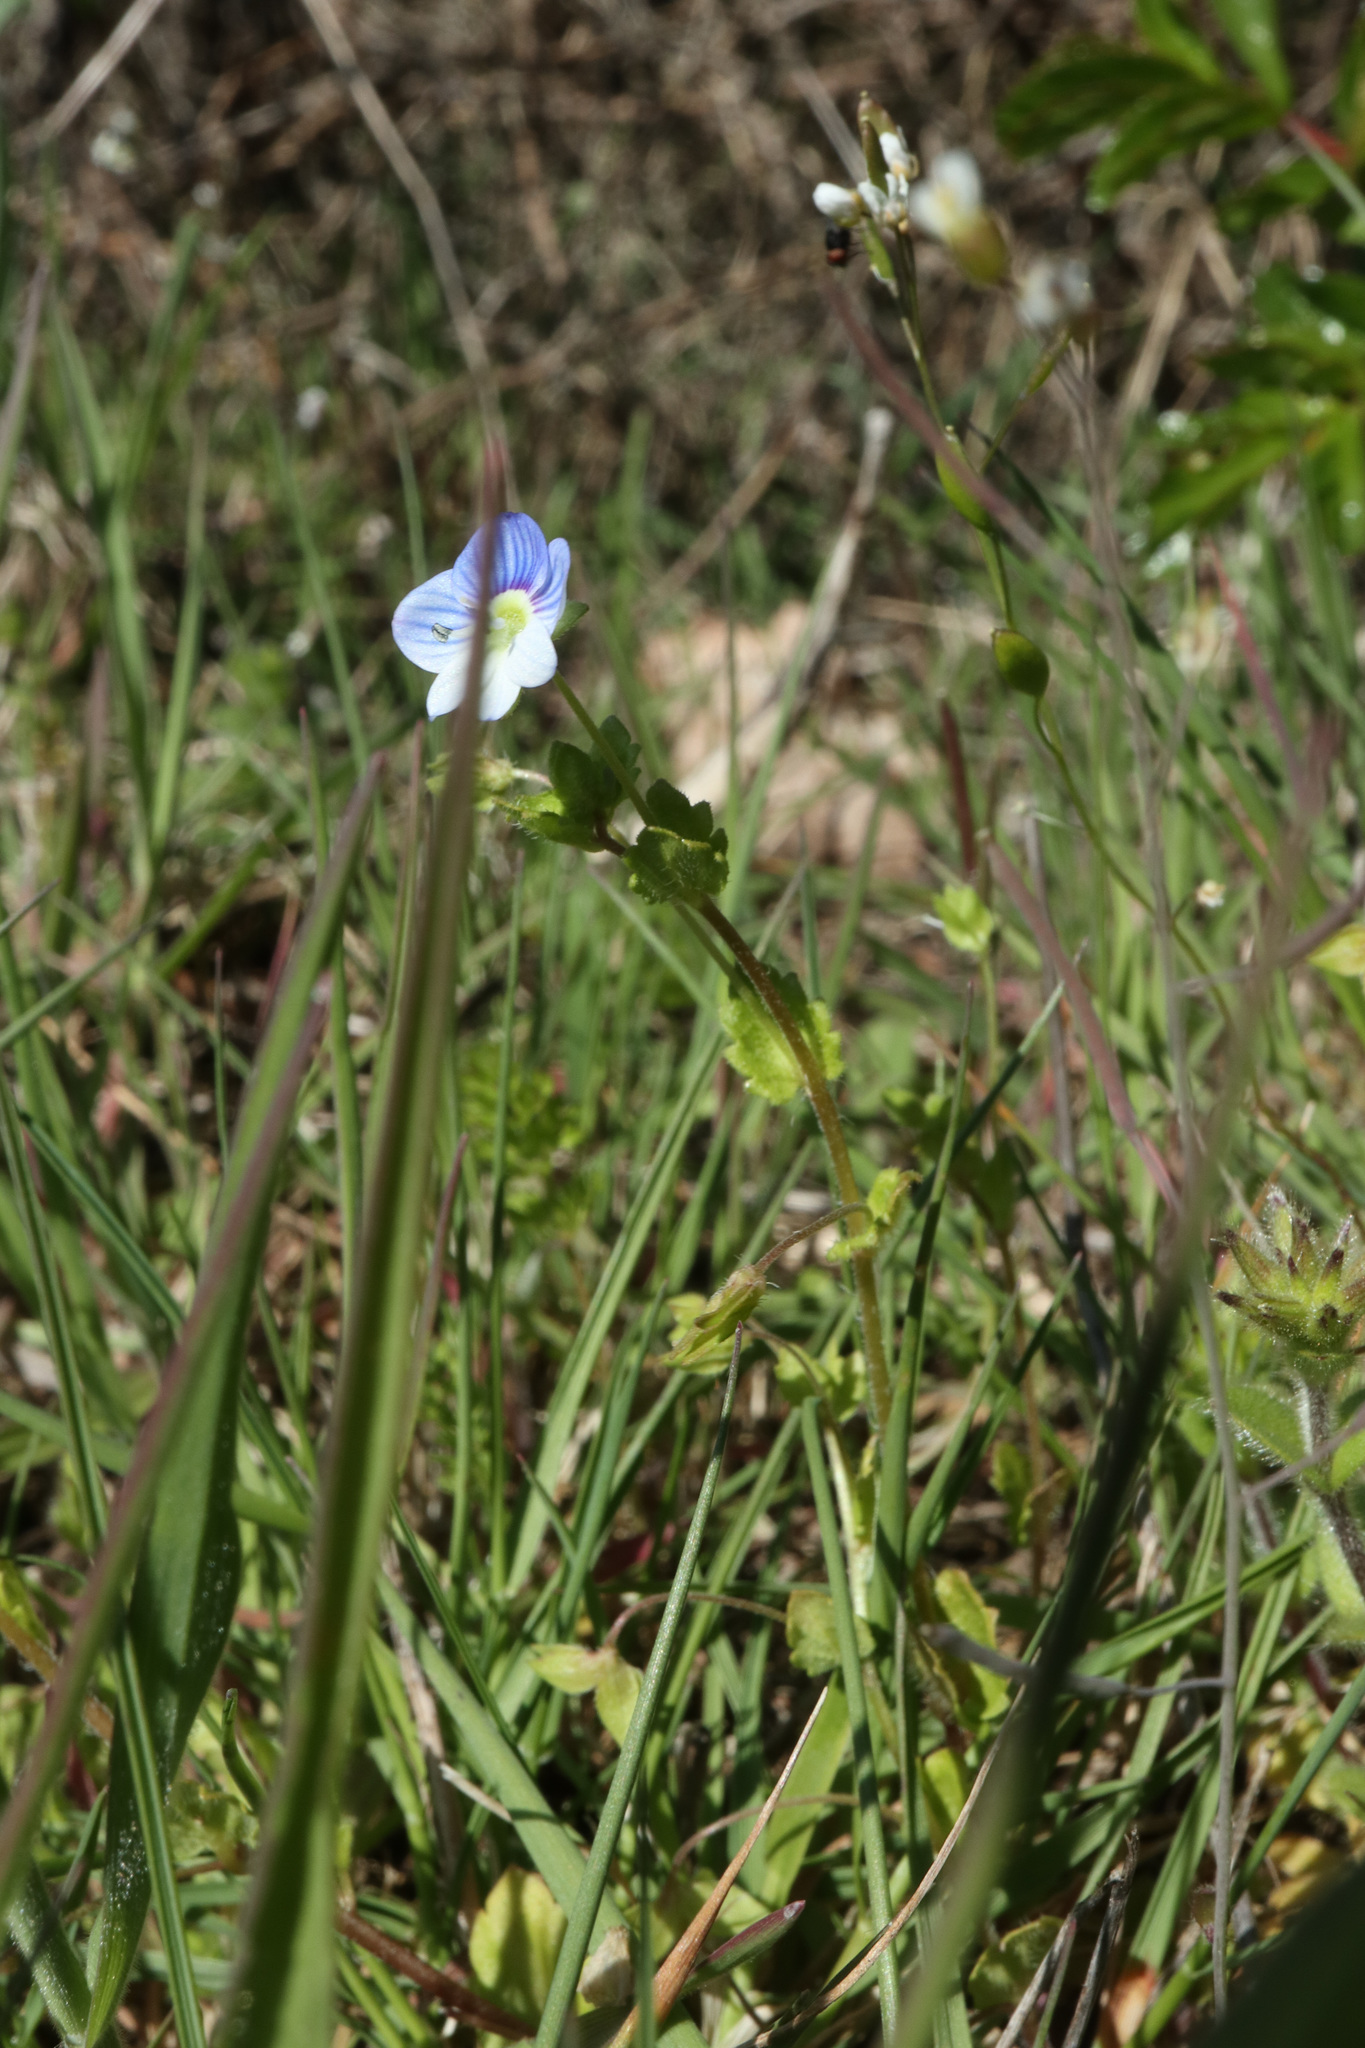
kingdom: Plantae
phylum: Tracheophyta
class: Magnoliopsida
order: Lamiales
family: Plantaginaceae
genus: Veronica
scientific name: Veronica persica
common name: Common field-speedwell
